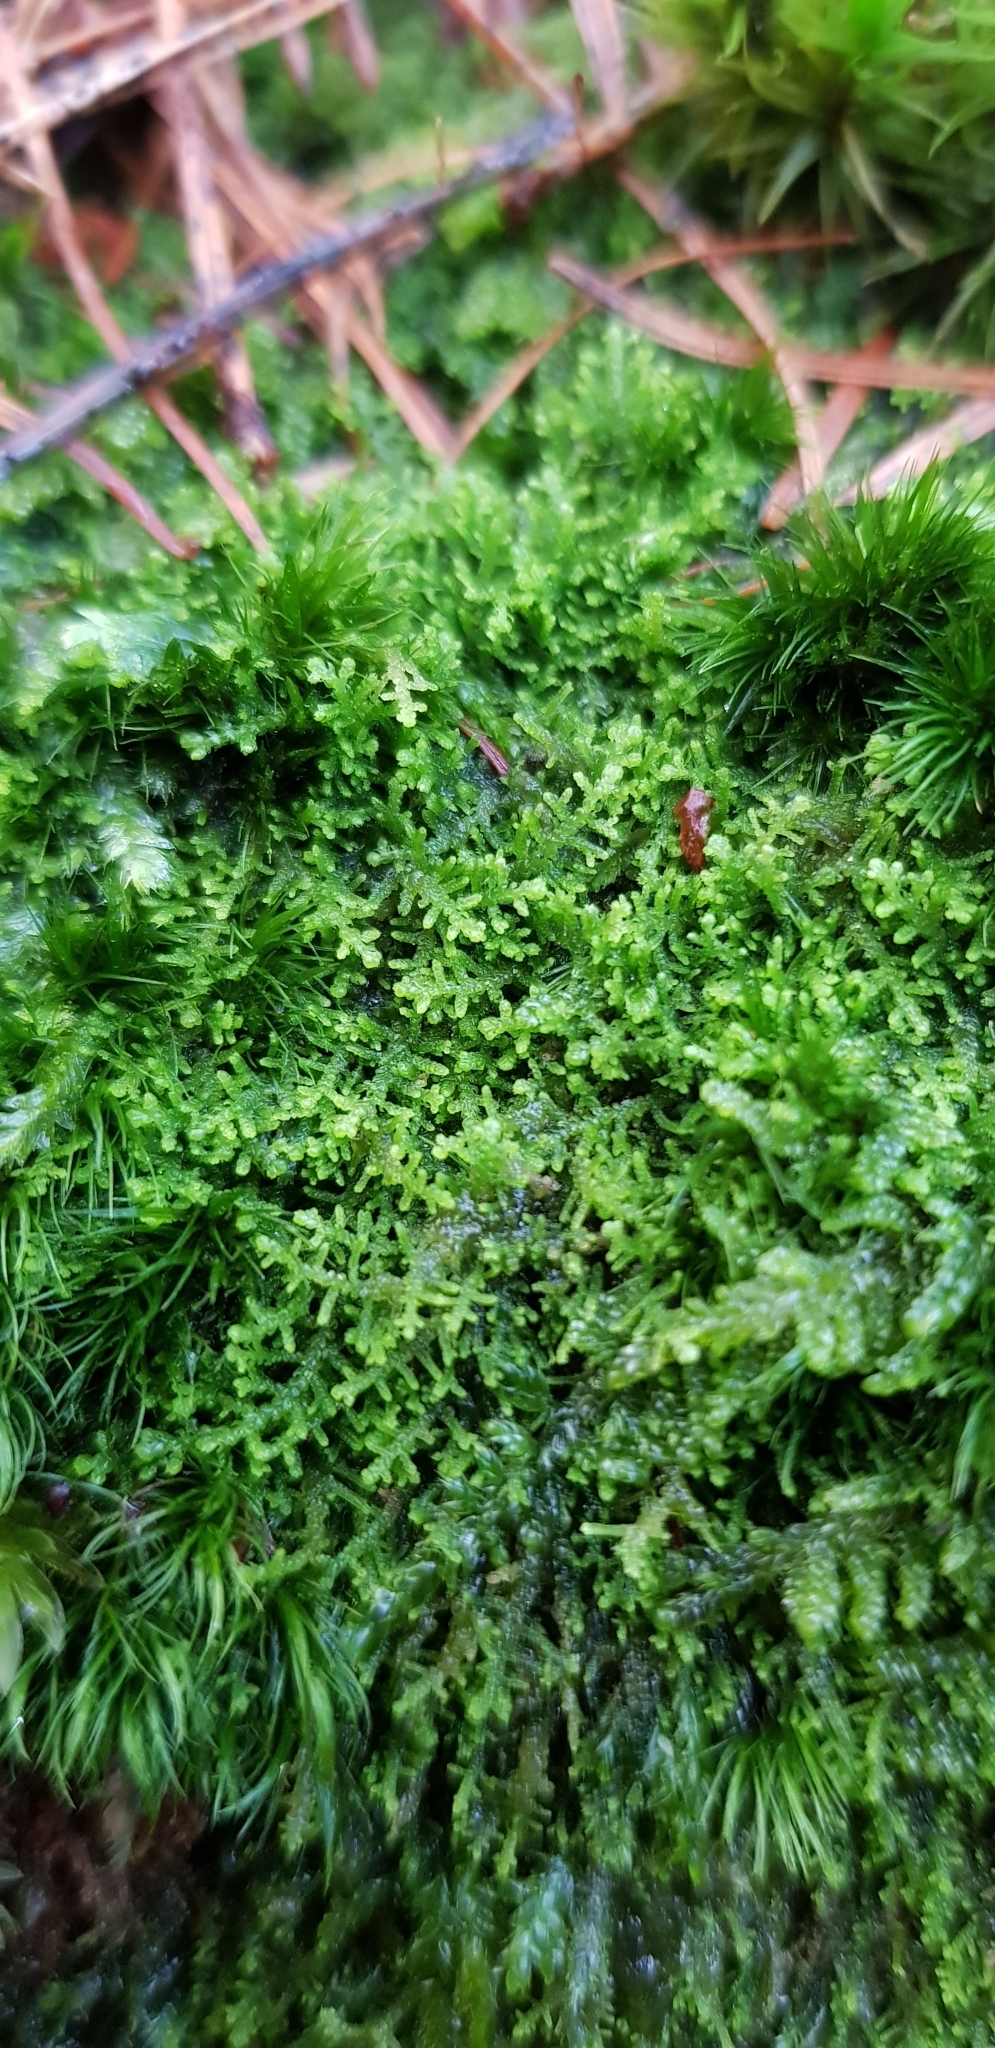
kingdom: Plantae
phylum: Marchantiophyta
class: Jungermanniopsida
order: Jungermanniales
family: Lepidoziaceae
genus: Lepidozia
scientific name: Lepidozia reptans
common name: Creeping fingerwort
